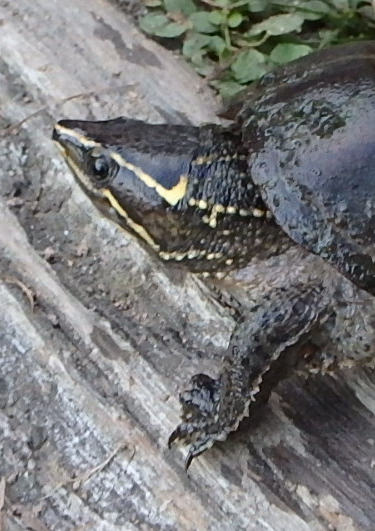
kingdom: Animalia
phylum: Chordata
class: Testudines
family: Kinosternidae
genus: Sternotherus
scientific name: Sternotherus odoratus
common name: Common musk turtle
